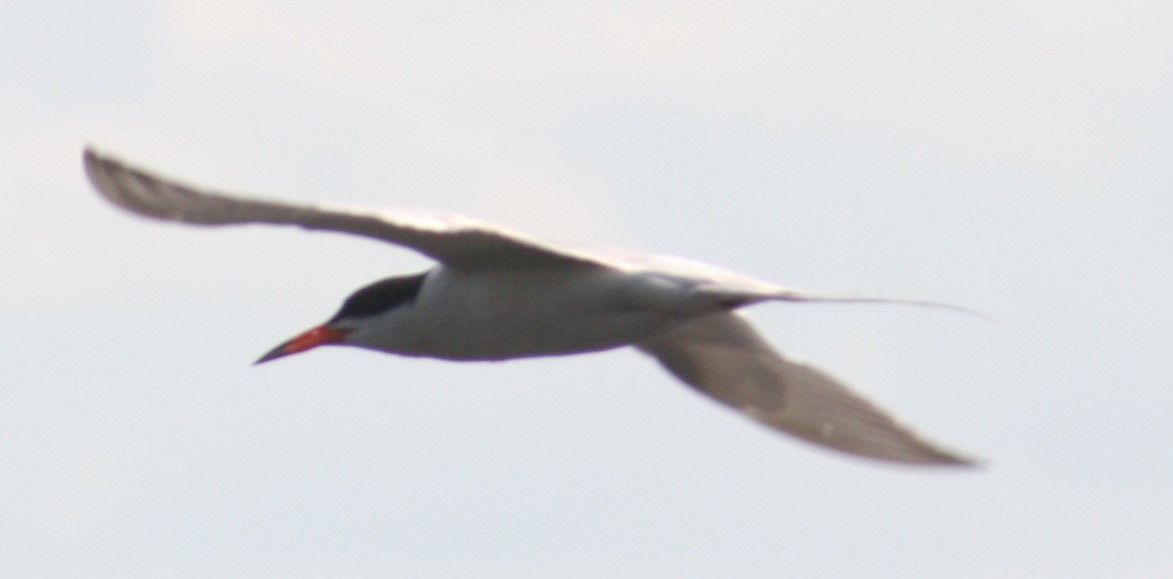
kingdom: Animalia
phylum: Chordata
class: Aves
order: Charadriiformes
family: Laridae
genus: Sterna
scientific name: Sterna forsteri
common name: Forster's tern
